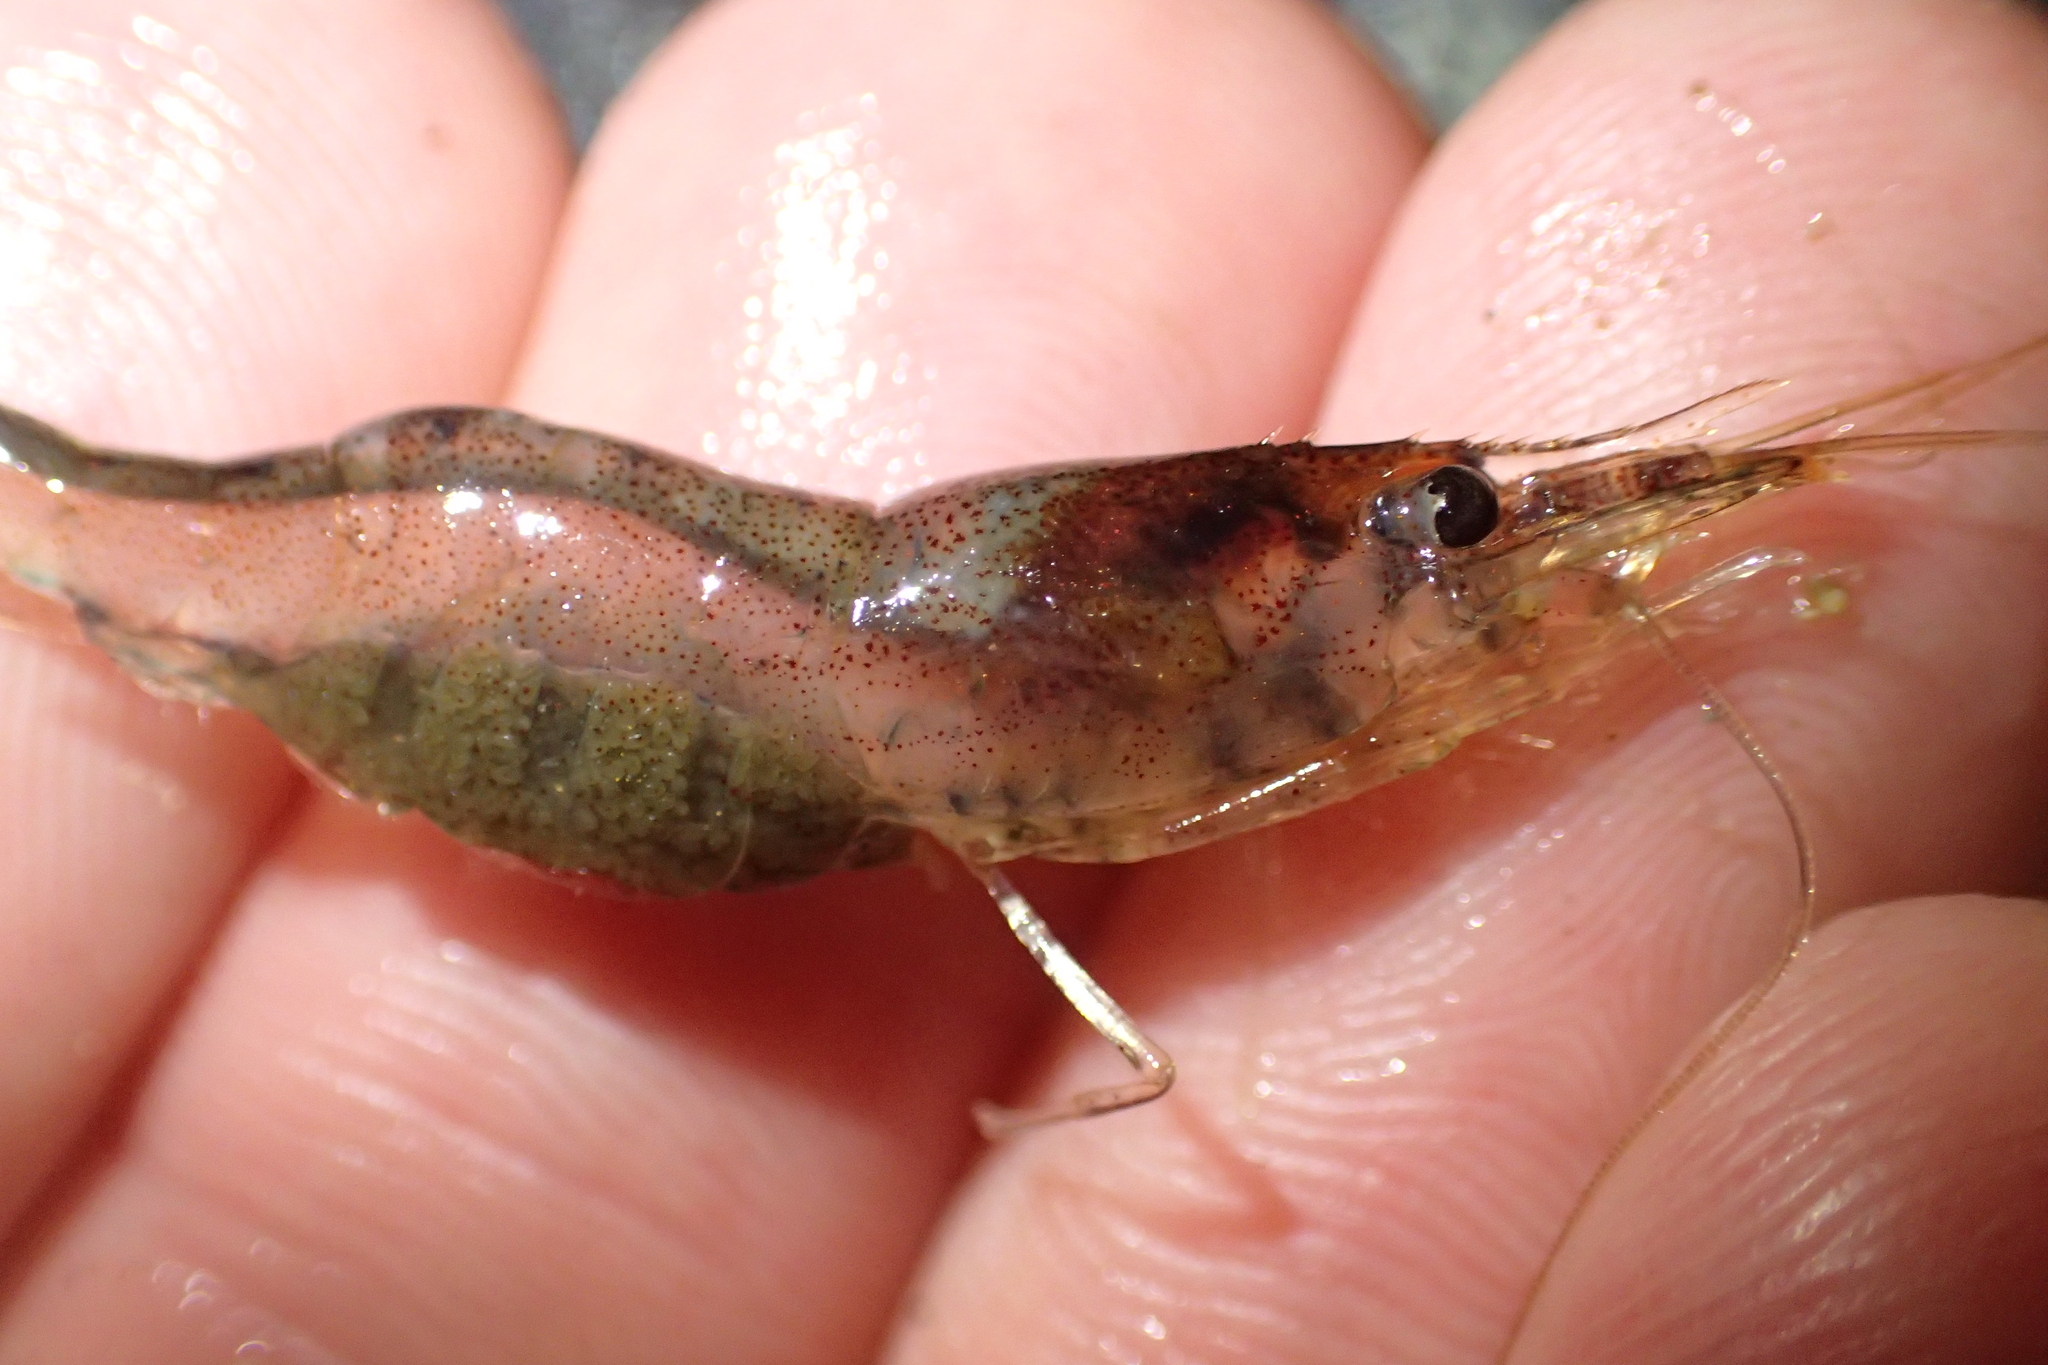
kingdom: Animalia
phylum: Arthropoda
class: Malacostraca
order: Decapoda
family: Atyidae
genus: Paratya
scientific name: Paratya curvirostris
